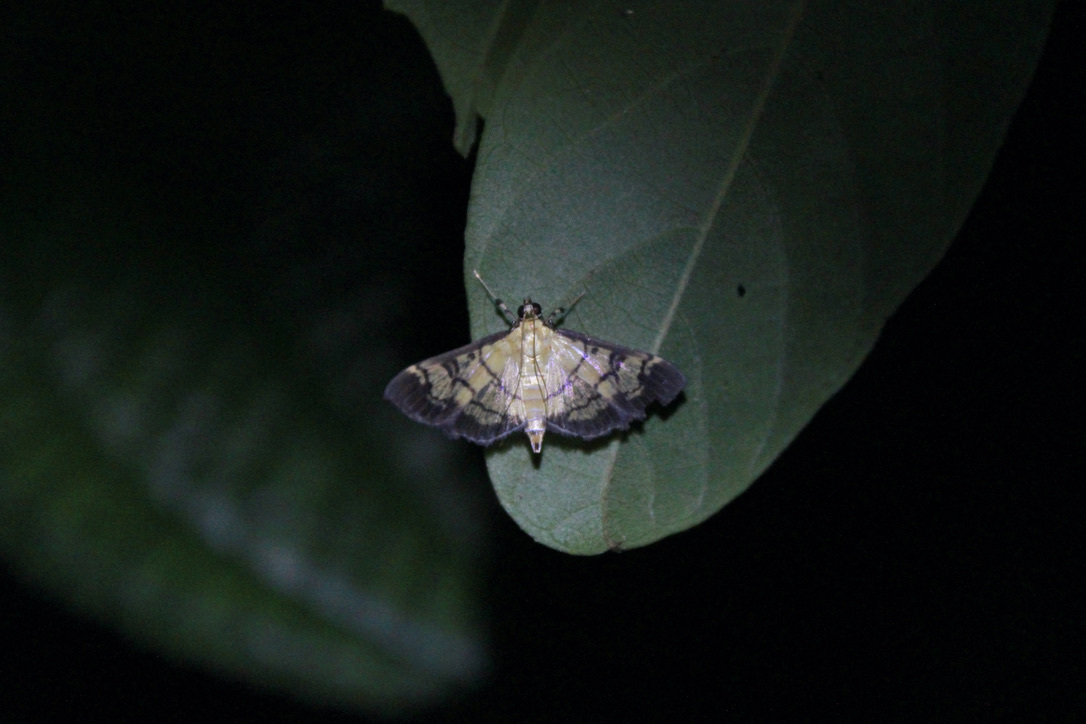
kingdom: Animalia
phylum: Arthropoda
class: Insecta
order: Lepidoptera
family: Crambidae
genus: Ategumia
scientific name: Ategumia matutinalis
